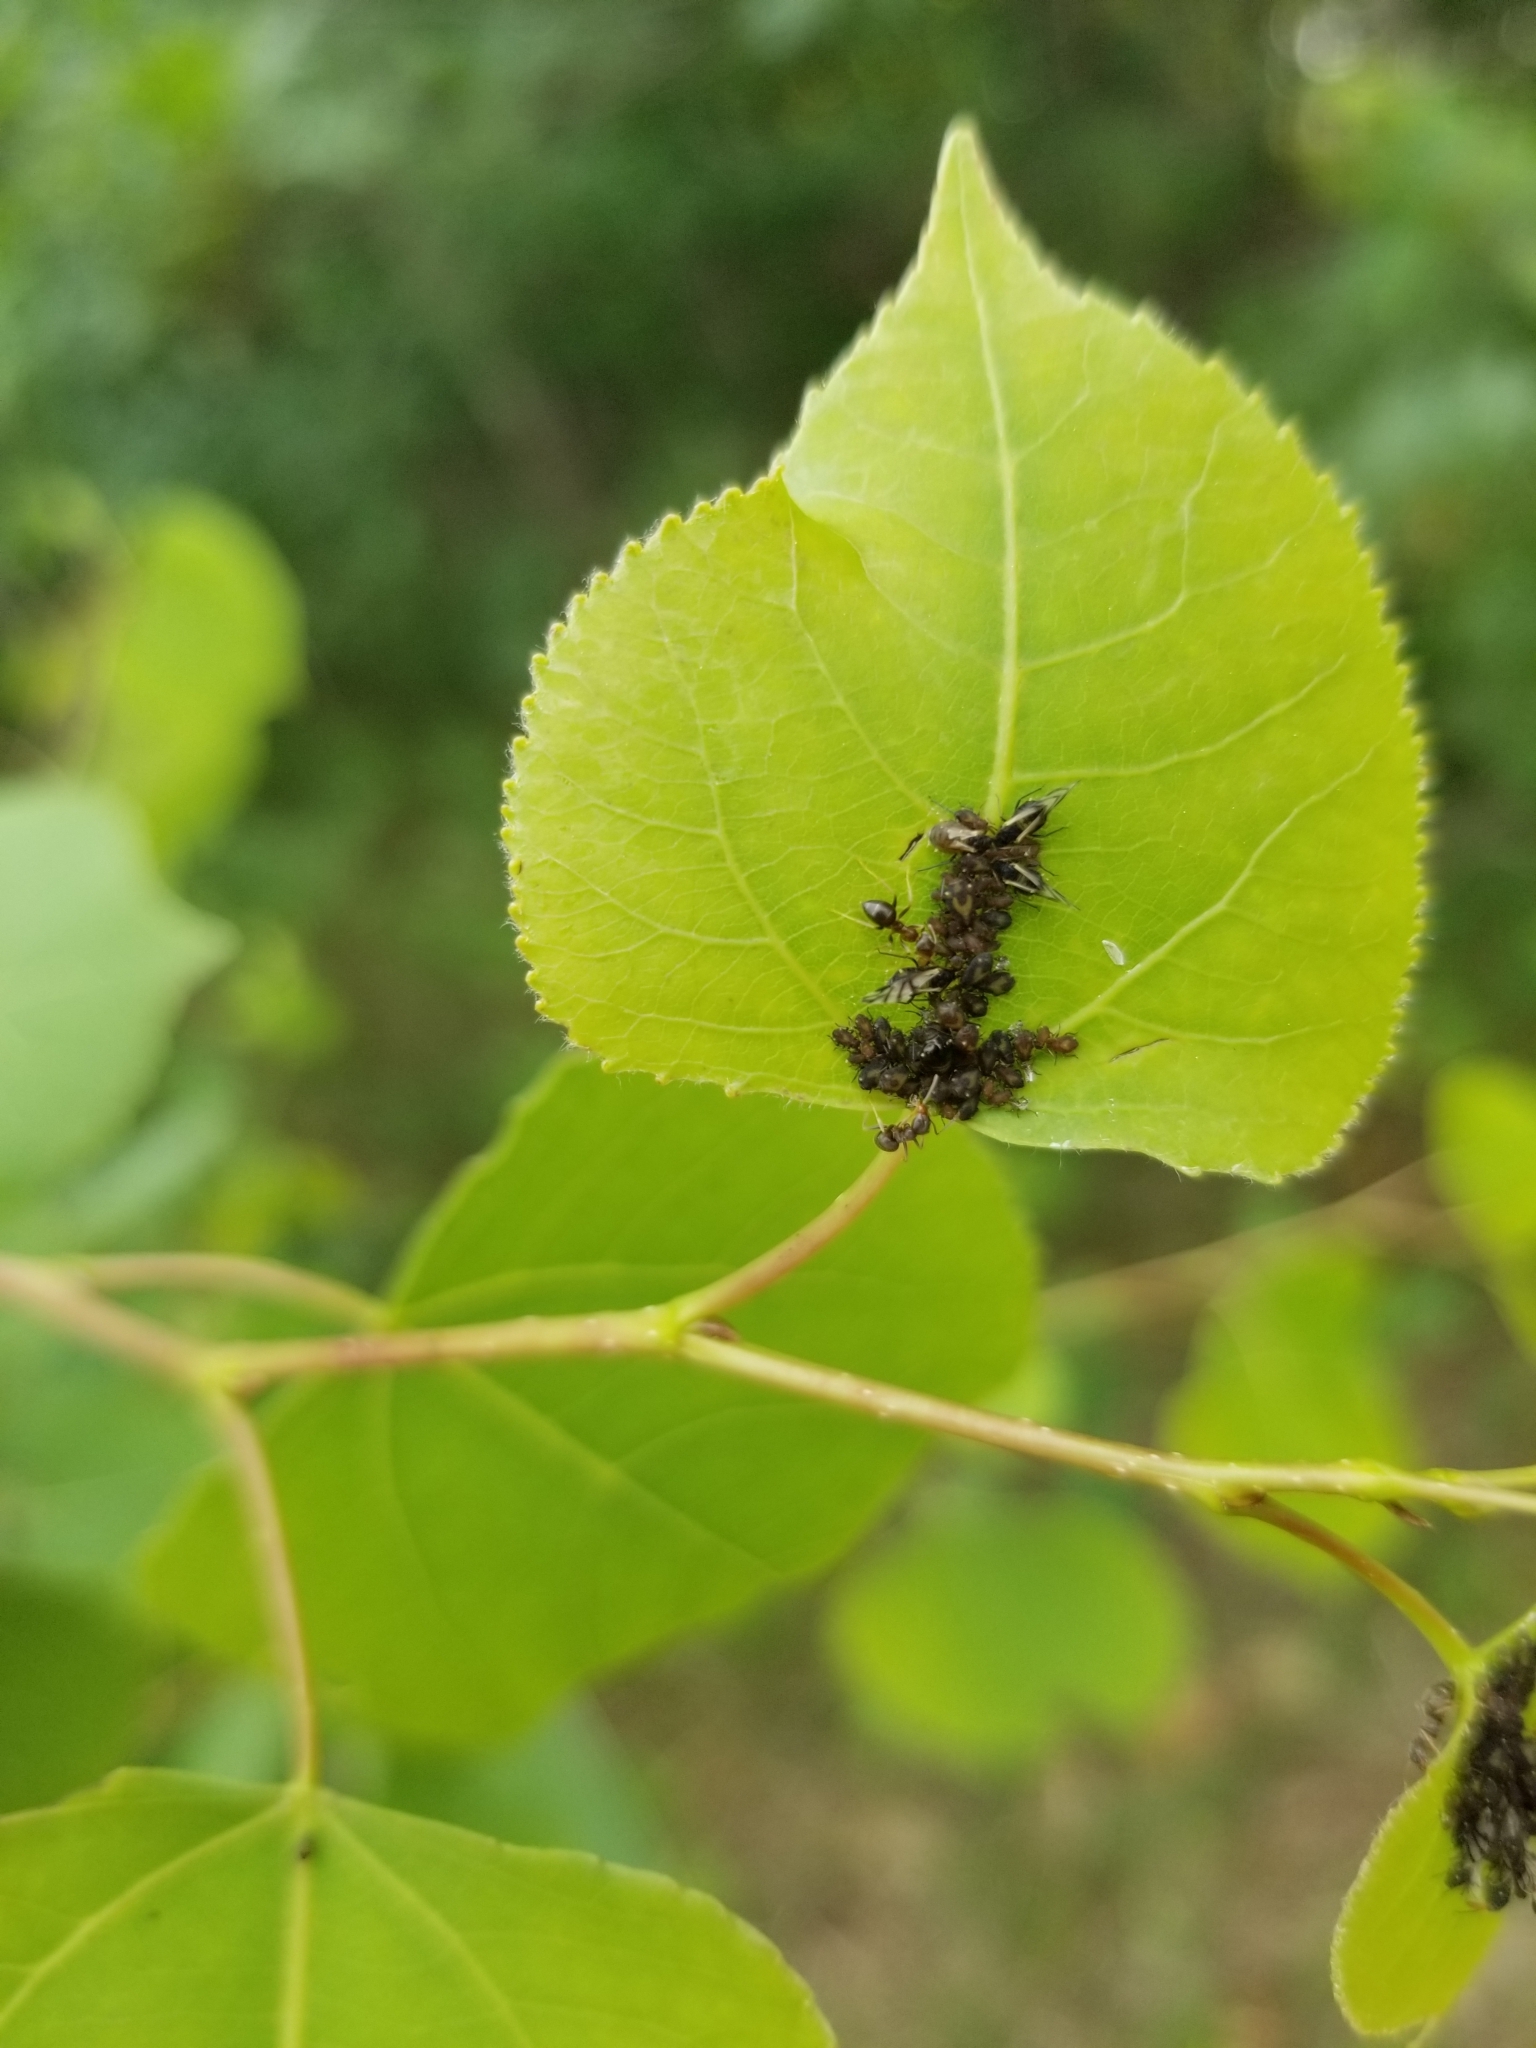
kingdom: Animalia
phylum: Arthropoda
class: Insecta
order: Hemiptera
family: Aphididae
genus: Chaitophorus
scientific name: Chaitophorus populicola
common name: Smokywinged poplar aphid
